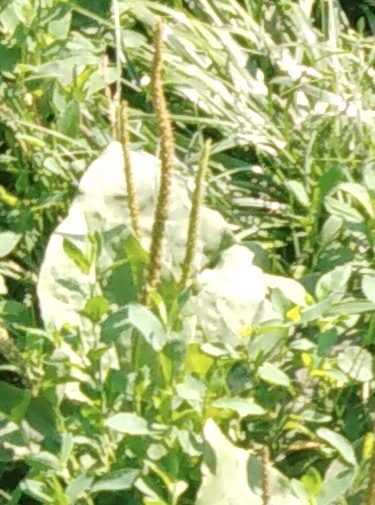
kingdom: Plantae
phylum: Tracheophyta
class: Magnoliopsida
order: Lamiales
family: Plantaginaceae
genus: Plantago
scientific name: Plantago major
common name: Common plantain
